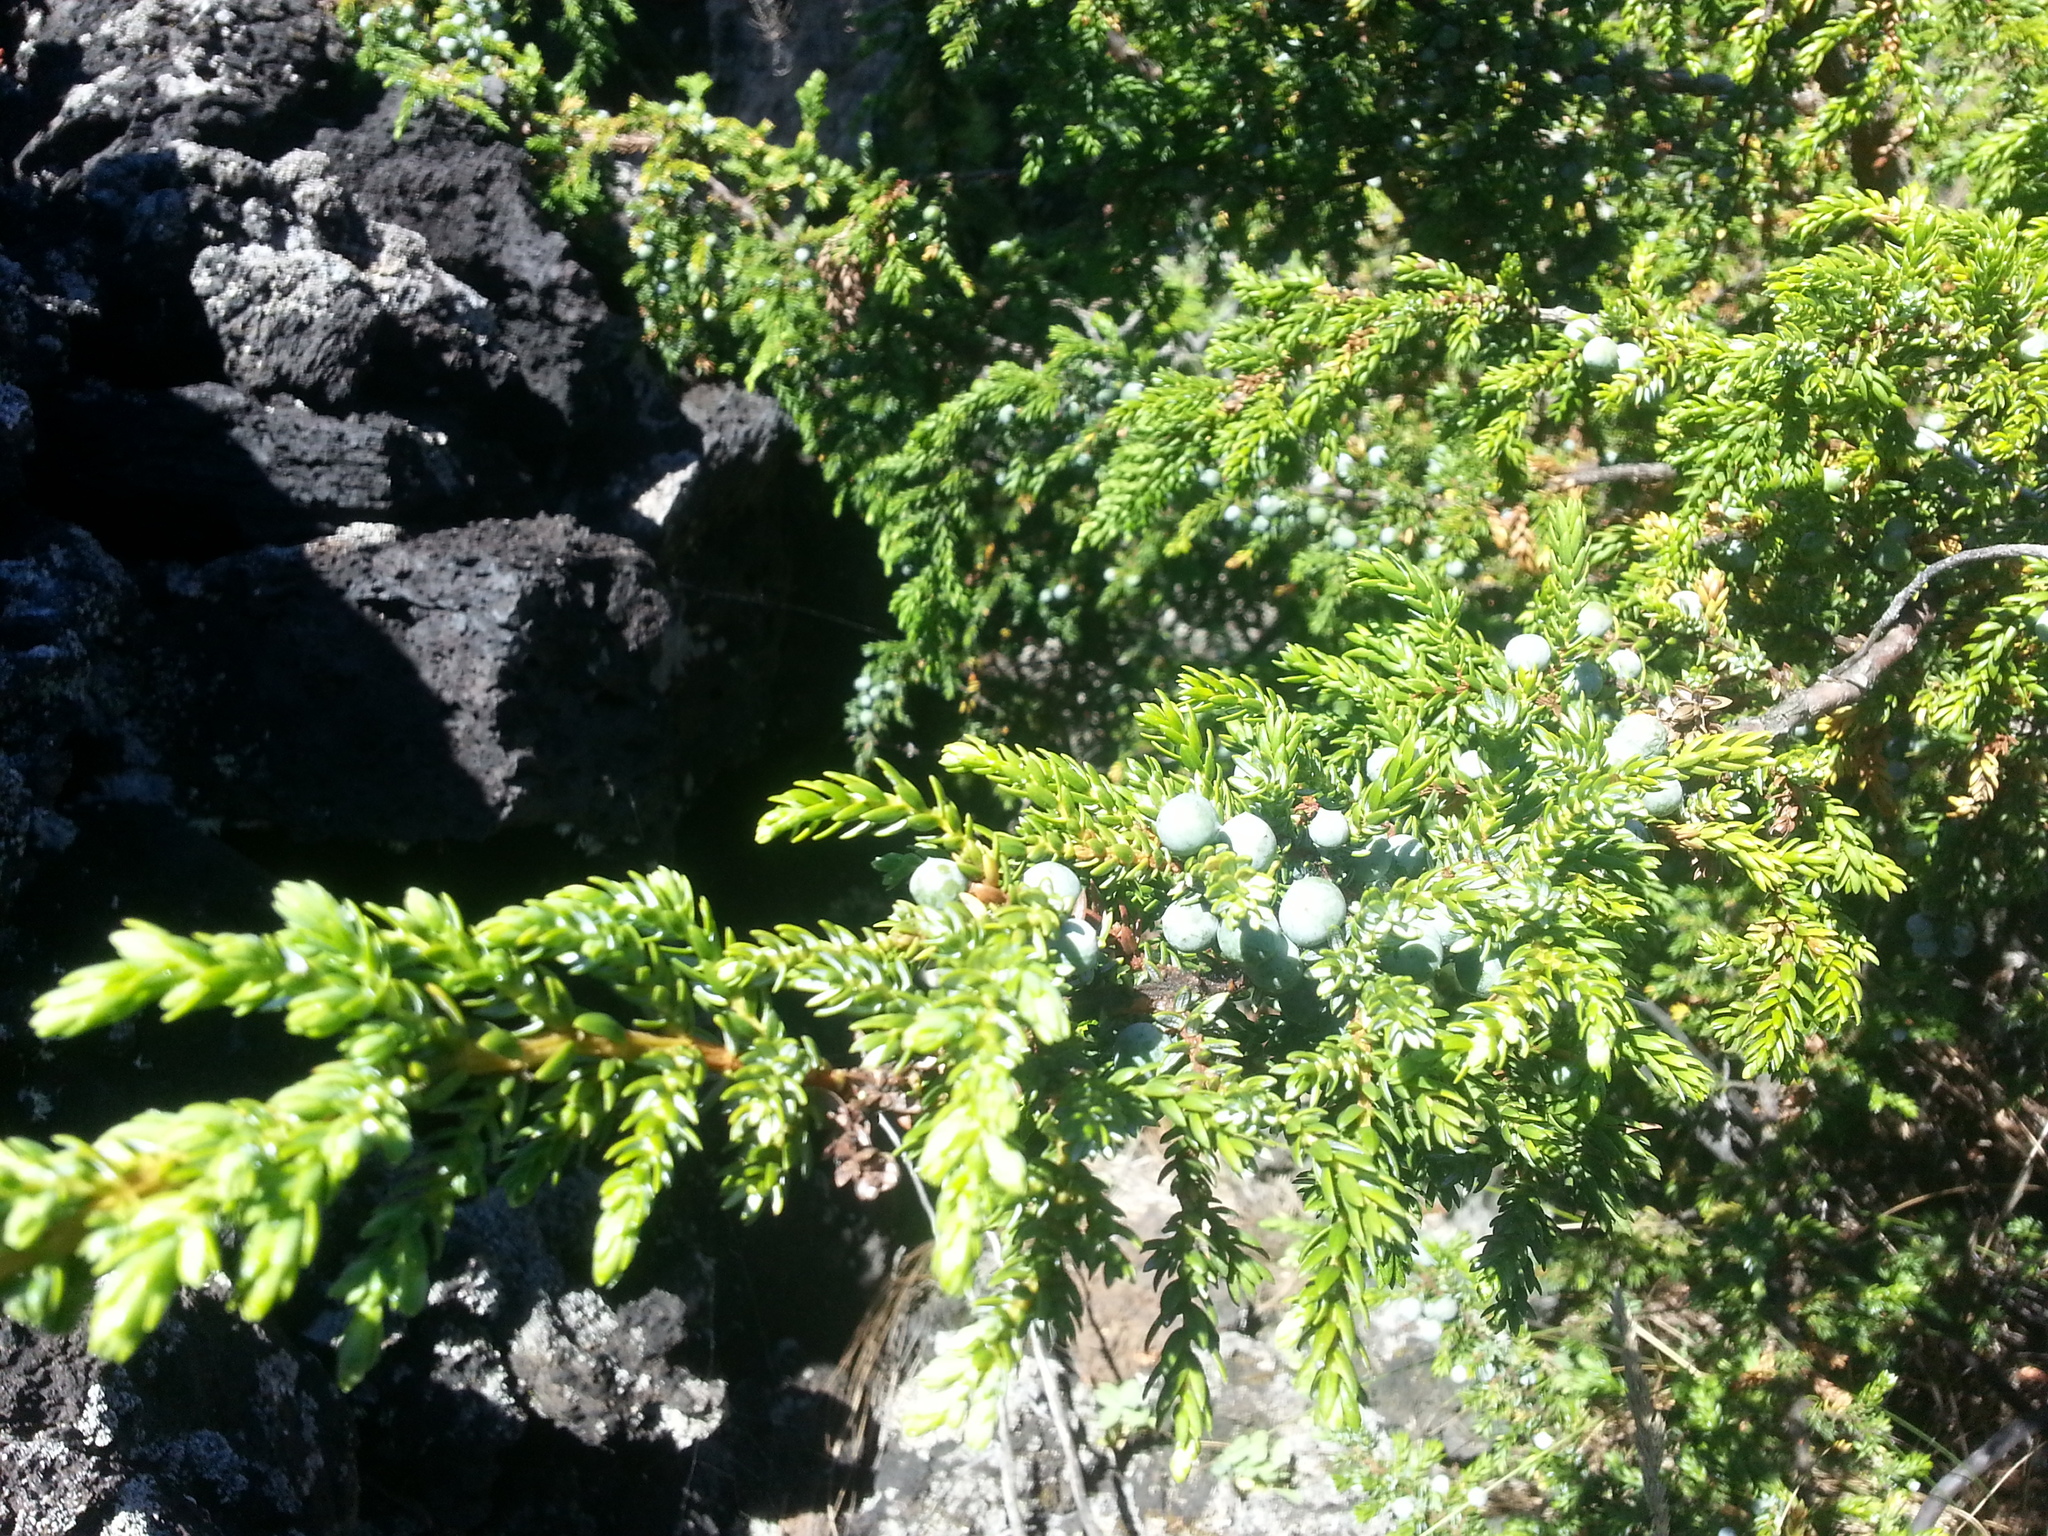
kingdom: Plantae
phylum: Tracheophyta
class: Pinopsida
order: Pinales
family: Cupressaceae
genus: Juniperus
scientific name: Juniperus brevifolia
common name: Azores juniper
